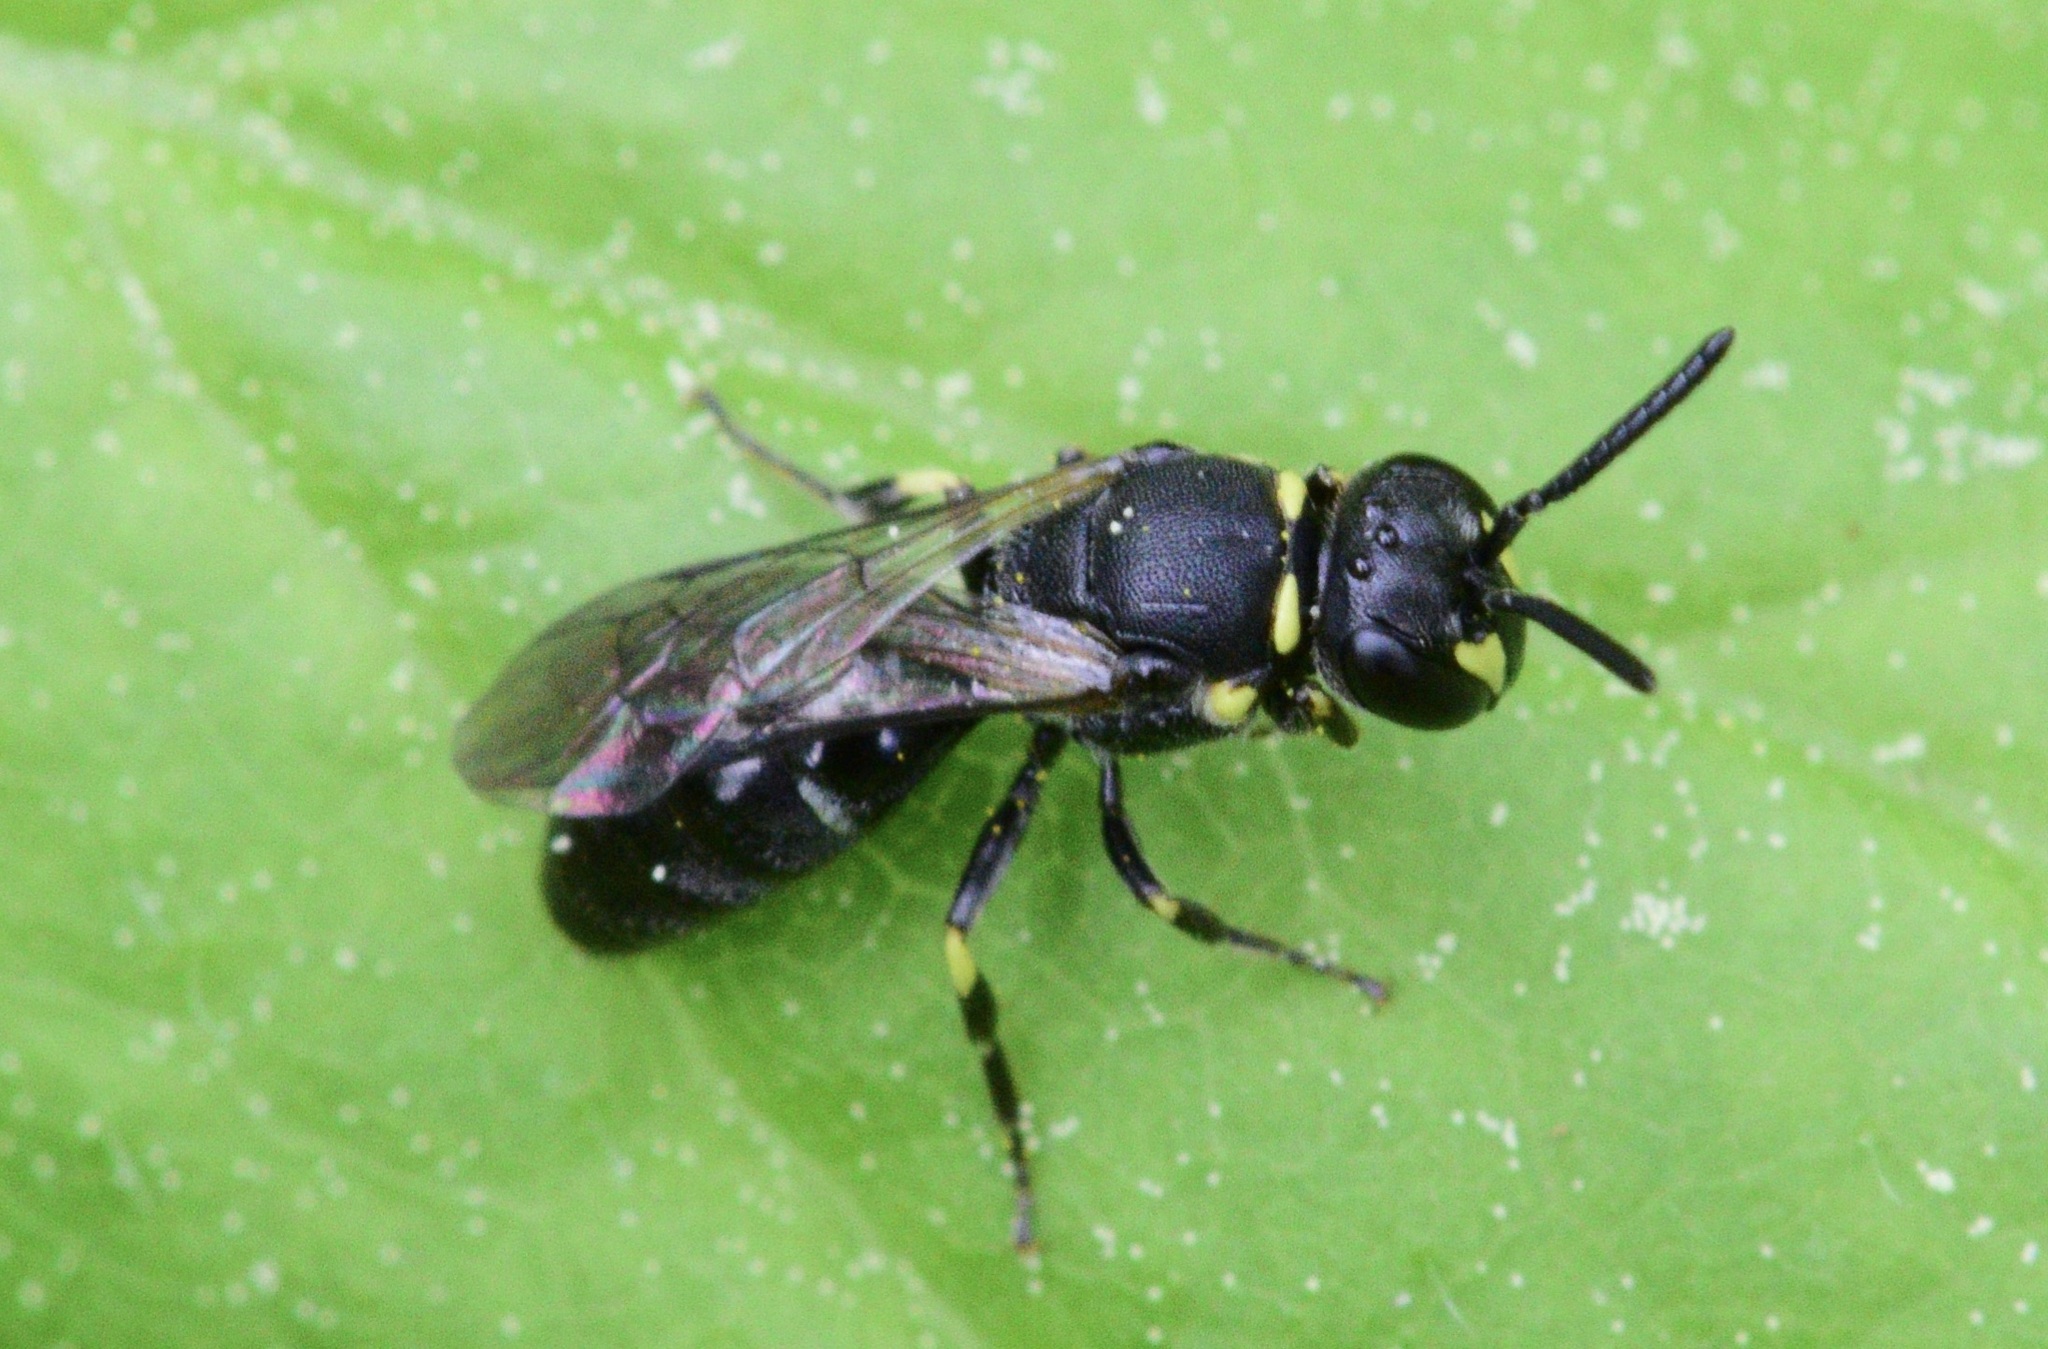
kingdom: Animalia
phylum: Arthropoda
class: Insecta
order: Hymenoptera
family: Colletidae
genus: Hylaeus
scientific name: Hylaeus modestus
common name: Yellow-faced bee
